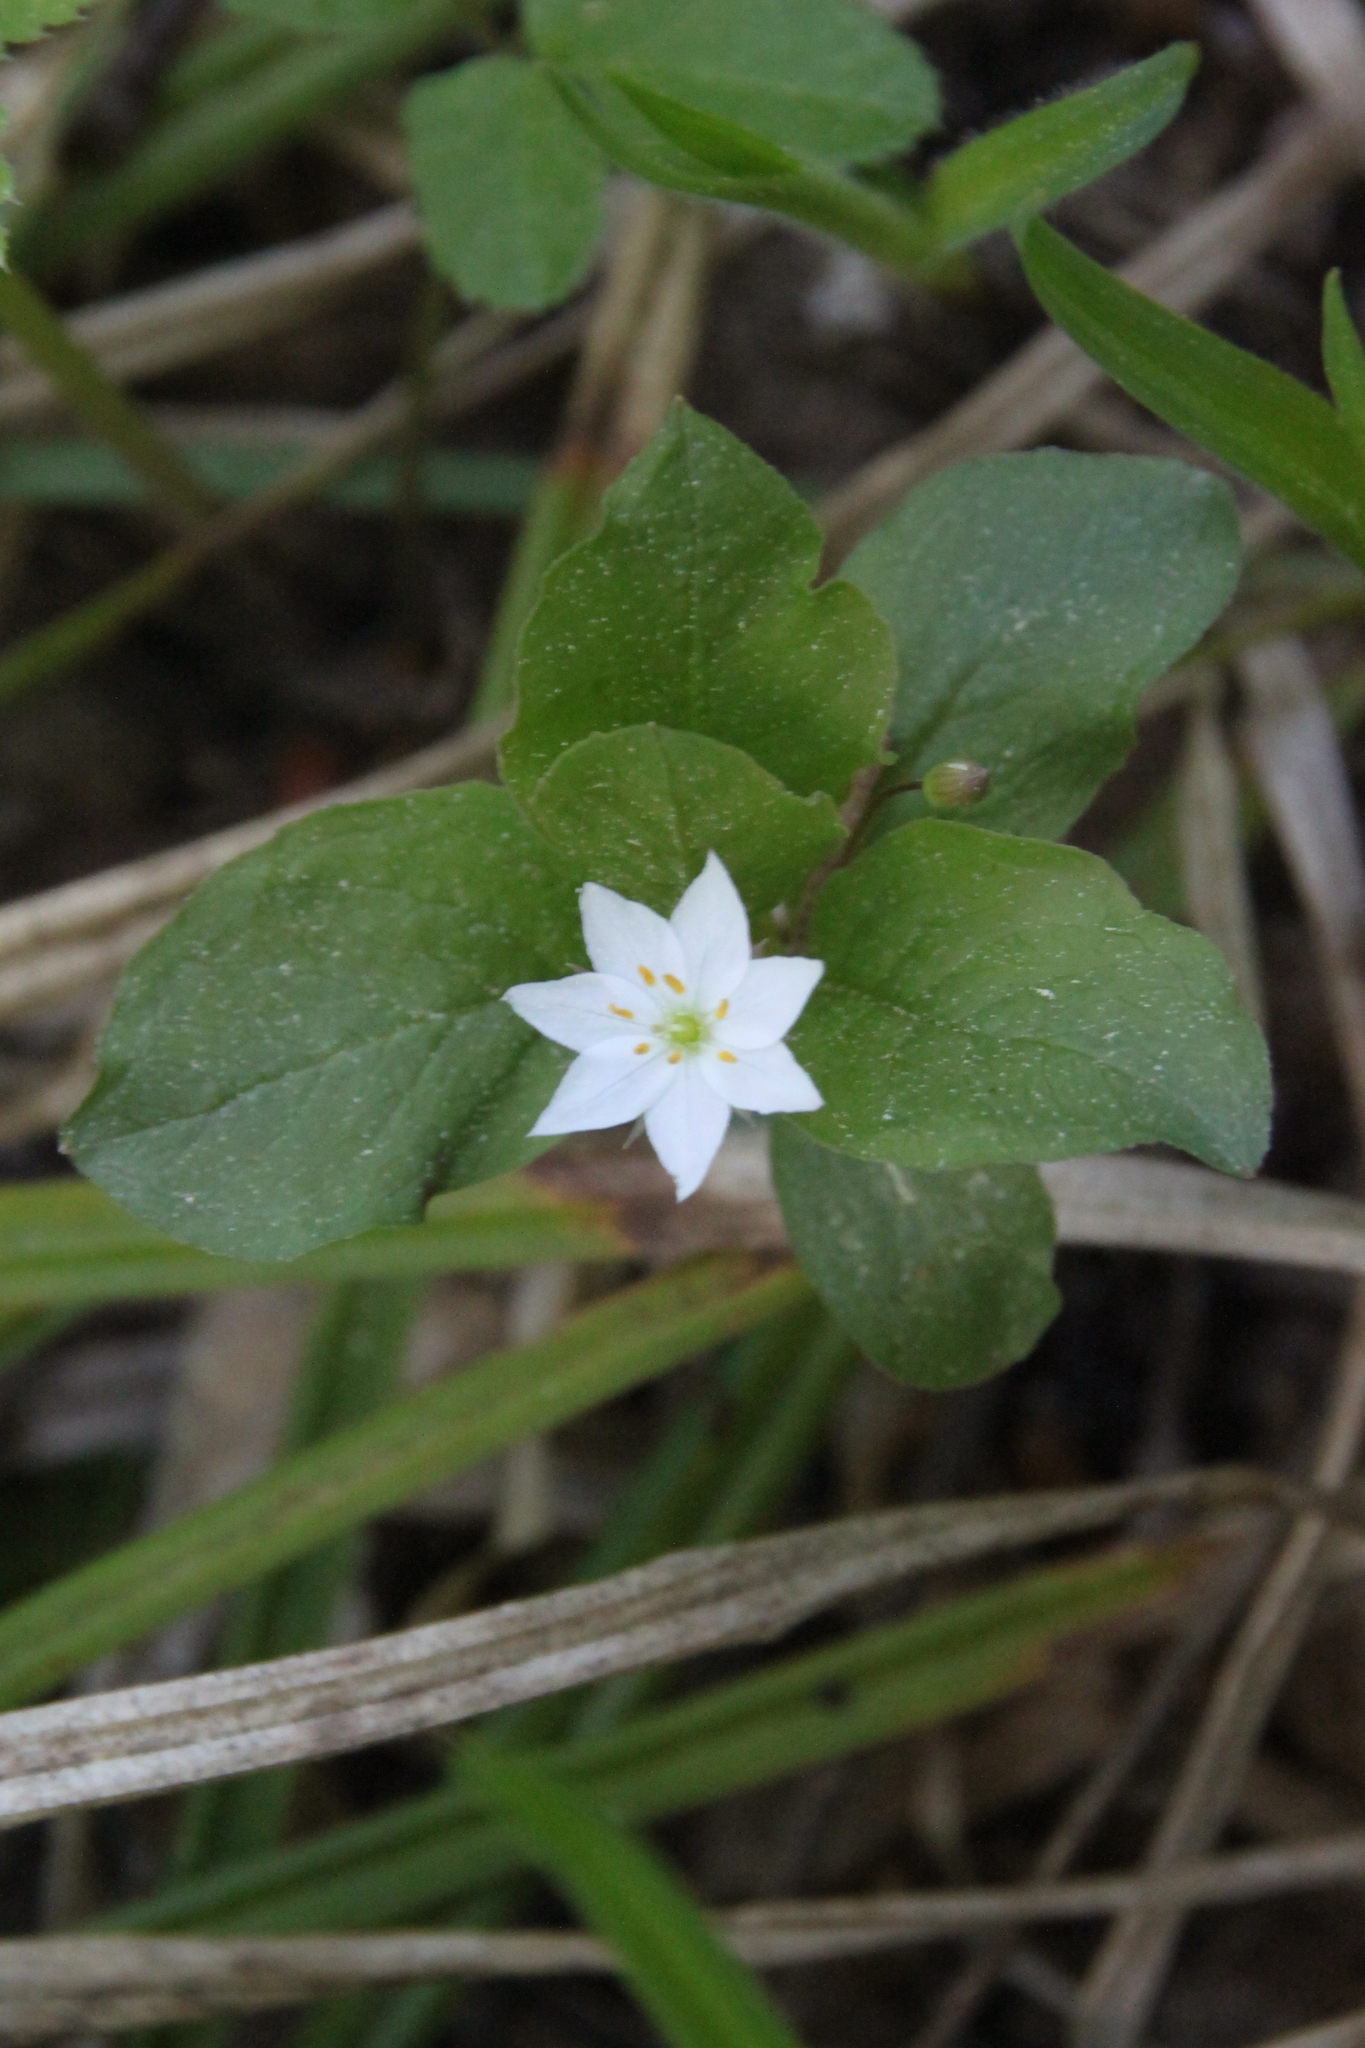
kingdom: Plantae
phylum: Tracheophyta
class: Magnoliopsida
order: Ericales
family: Primulaceae
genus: Lysimachia
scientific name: Lysimachia europaea
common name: Arctic starflower
